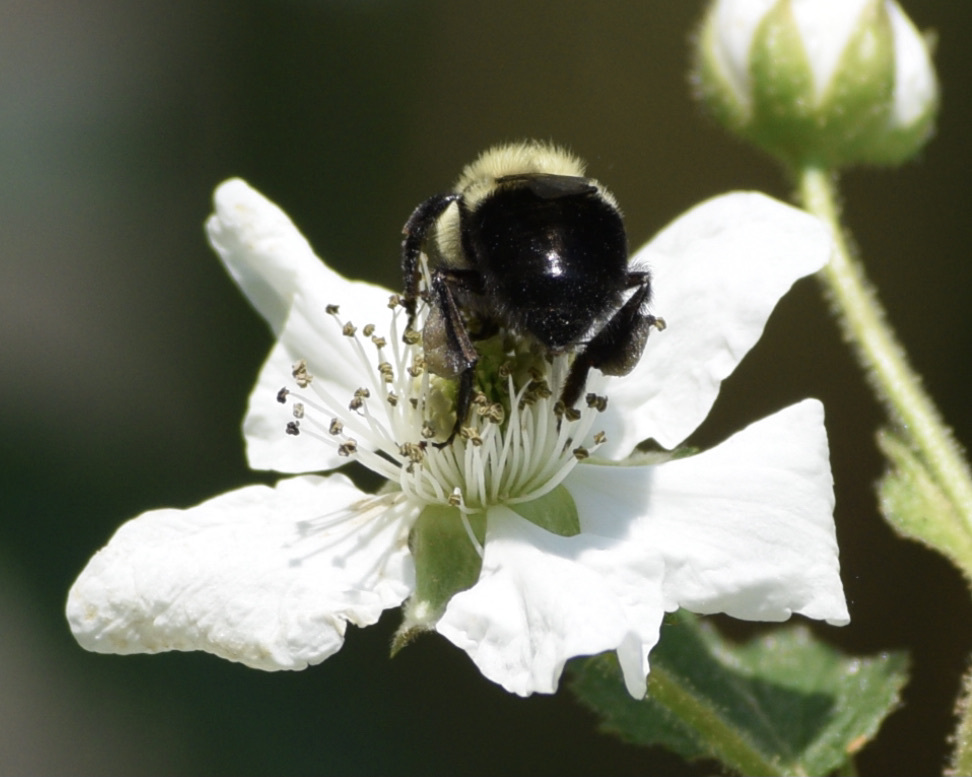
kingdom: Animalia
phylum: Arthropoda
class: Insecta
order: Hymenoptera
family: Apidae
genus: Bombus
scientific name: Bombus impatiens
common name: Common eastern bumble bee
